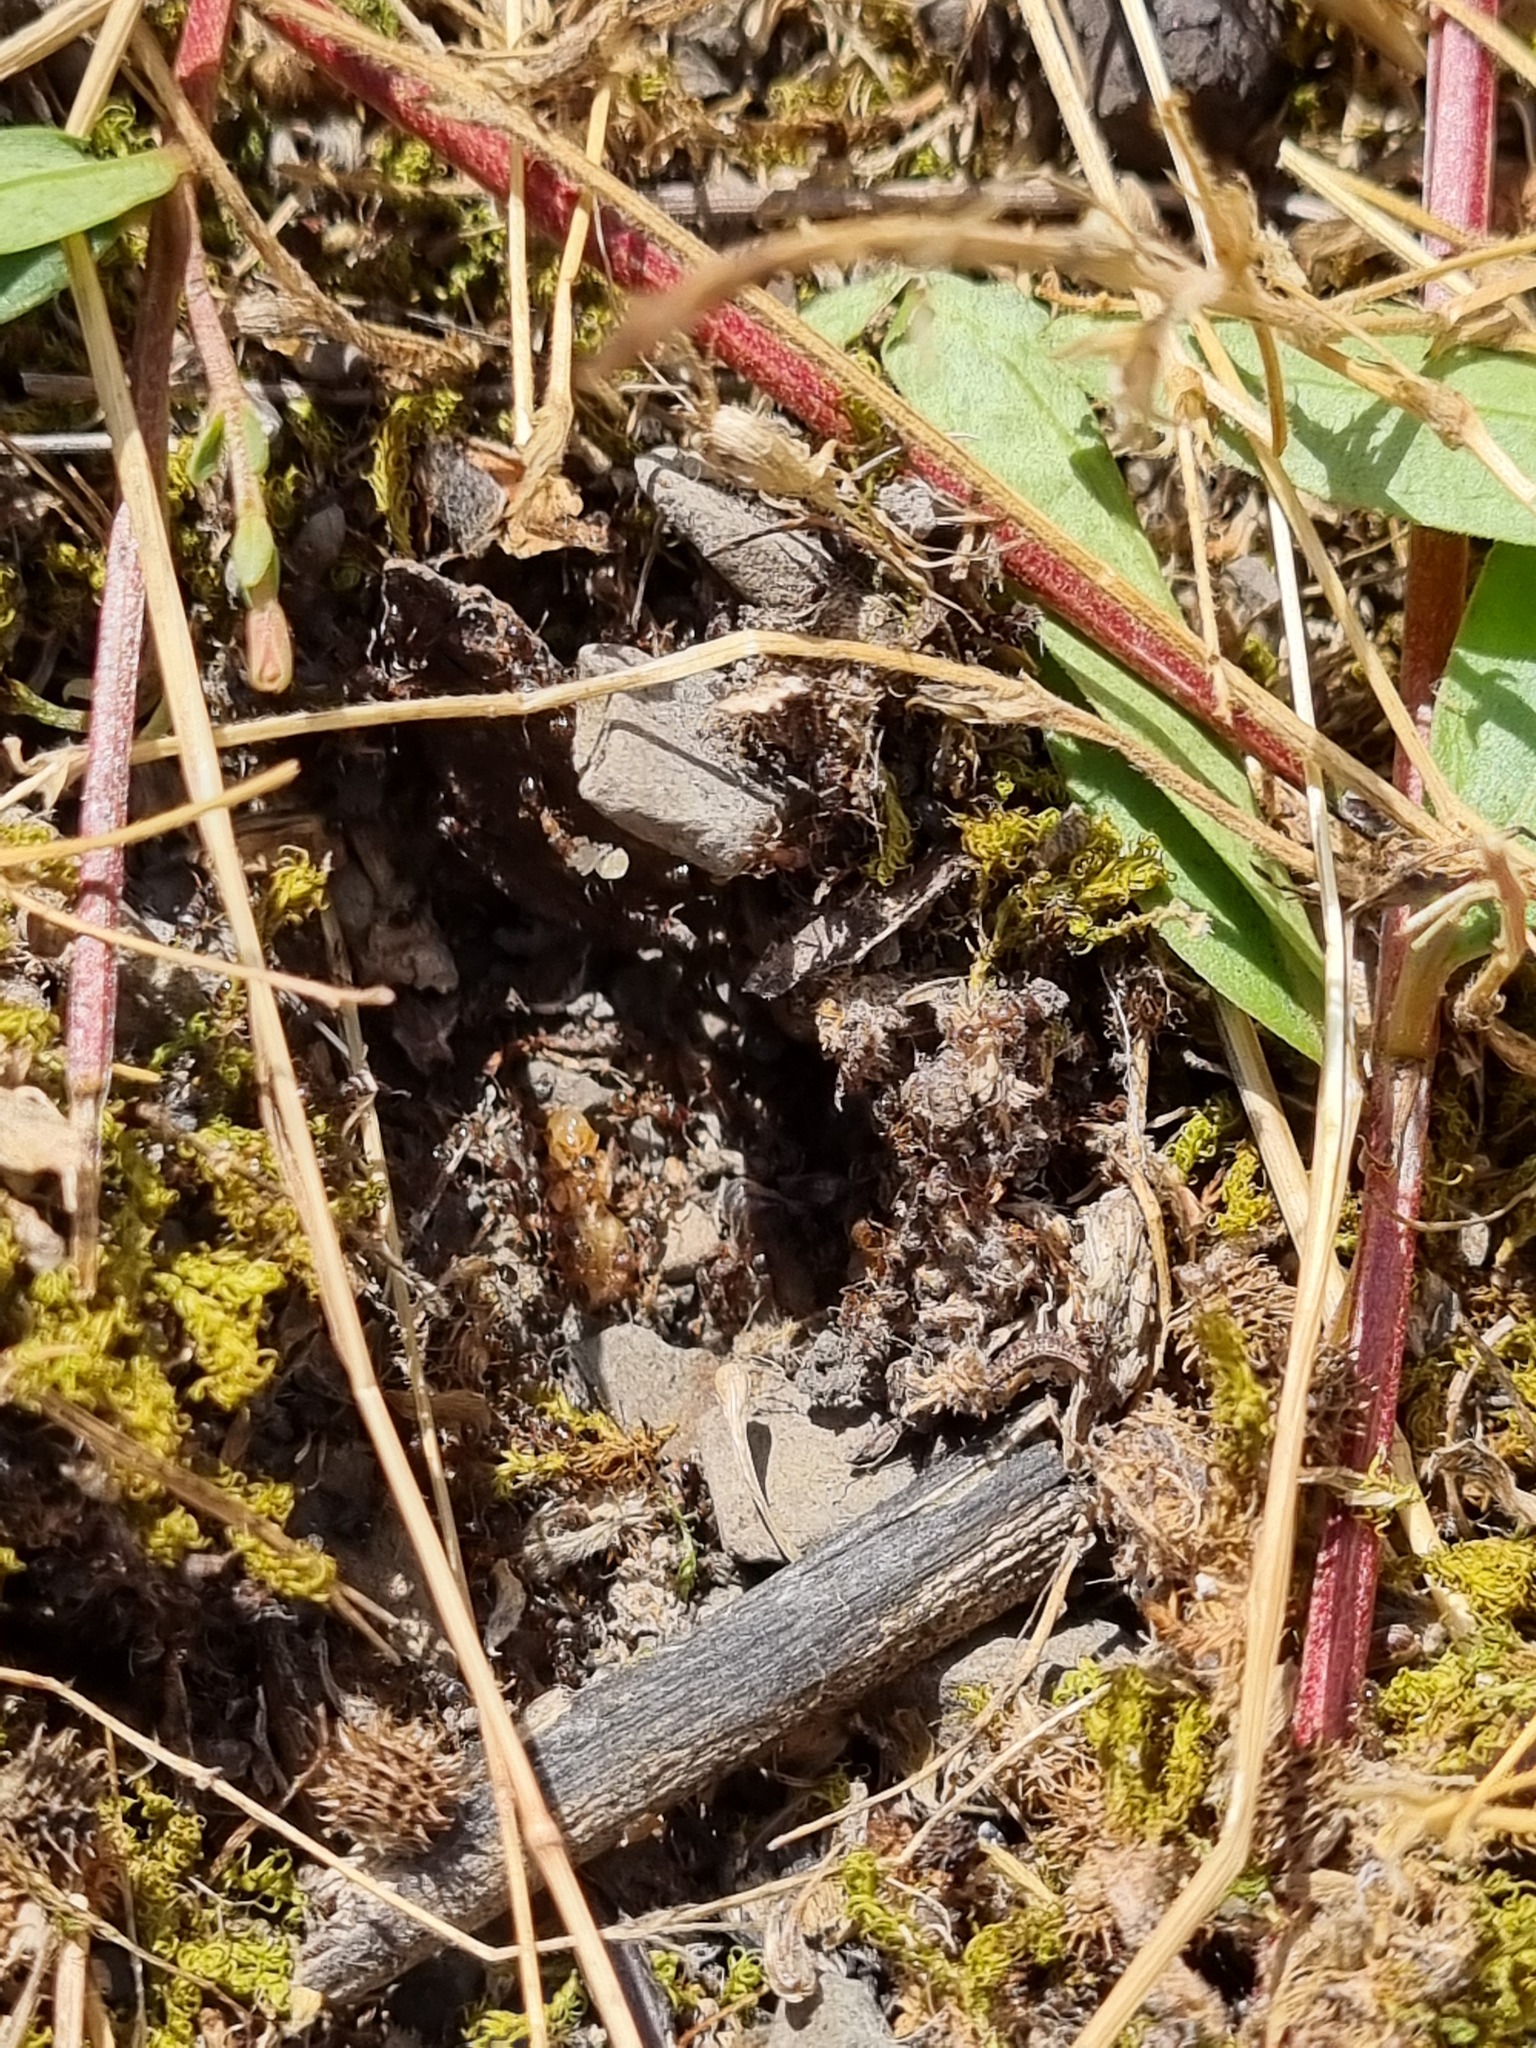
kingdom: Plantae
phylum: Tracheophyta
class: Magnoliopsida
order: Gentianales
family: Apocynaceae
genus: Vinca
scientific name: Vinca herbacea
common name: Herbaceous periwinkle
